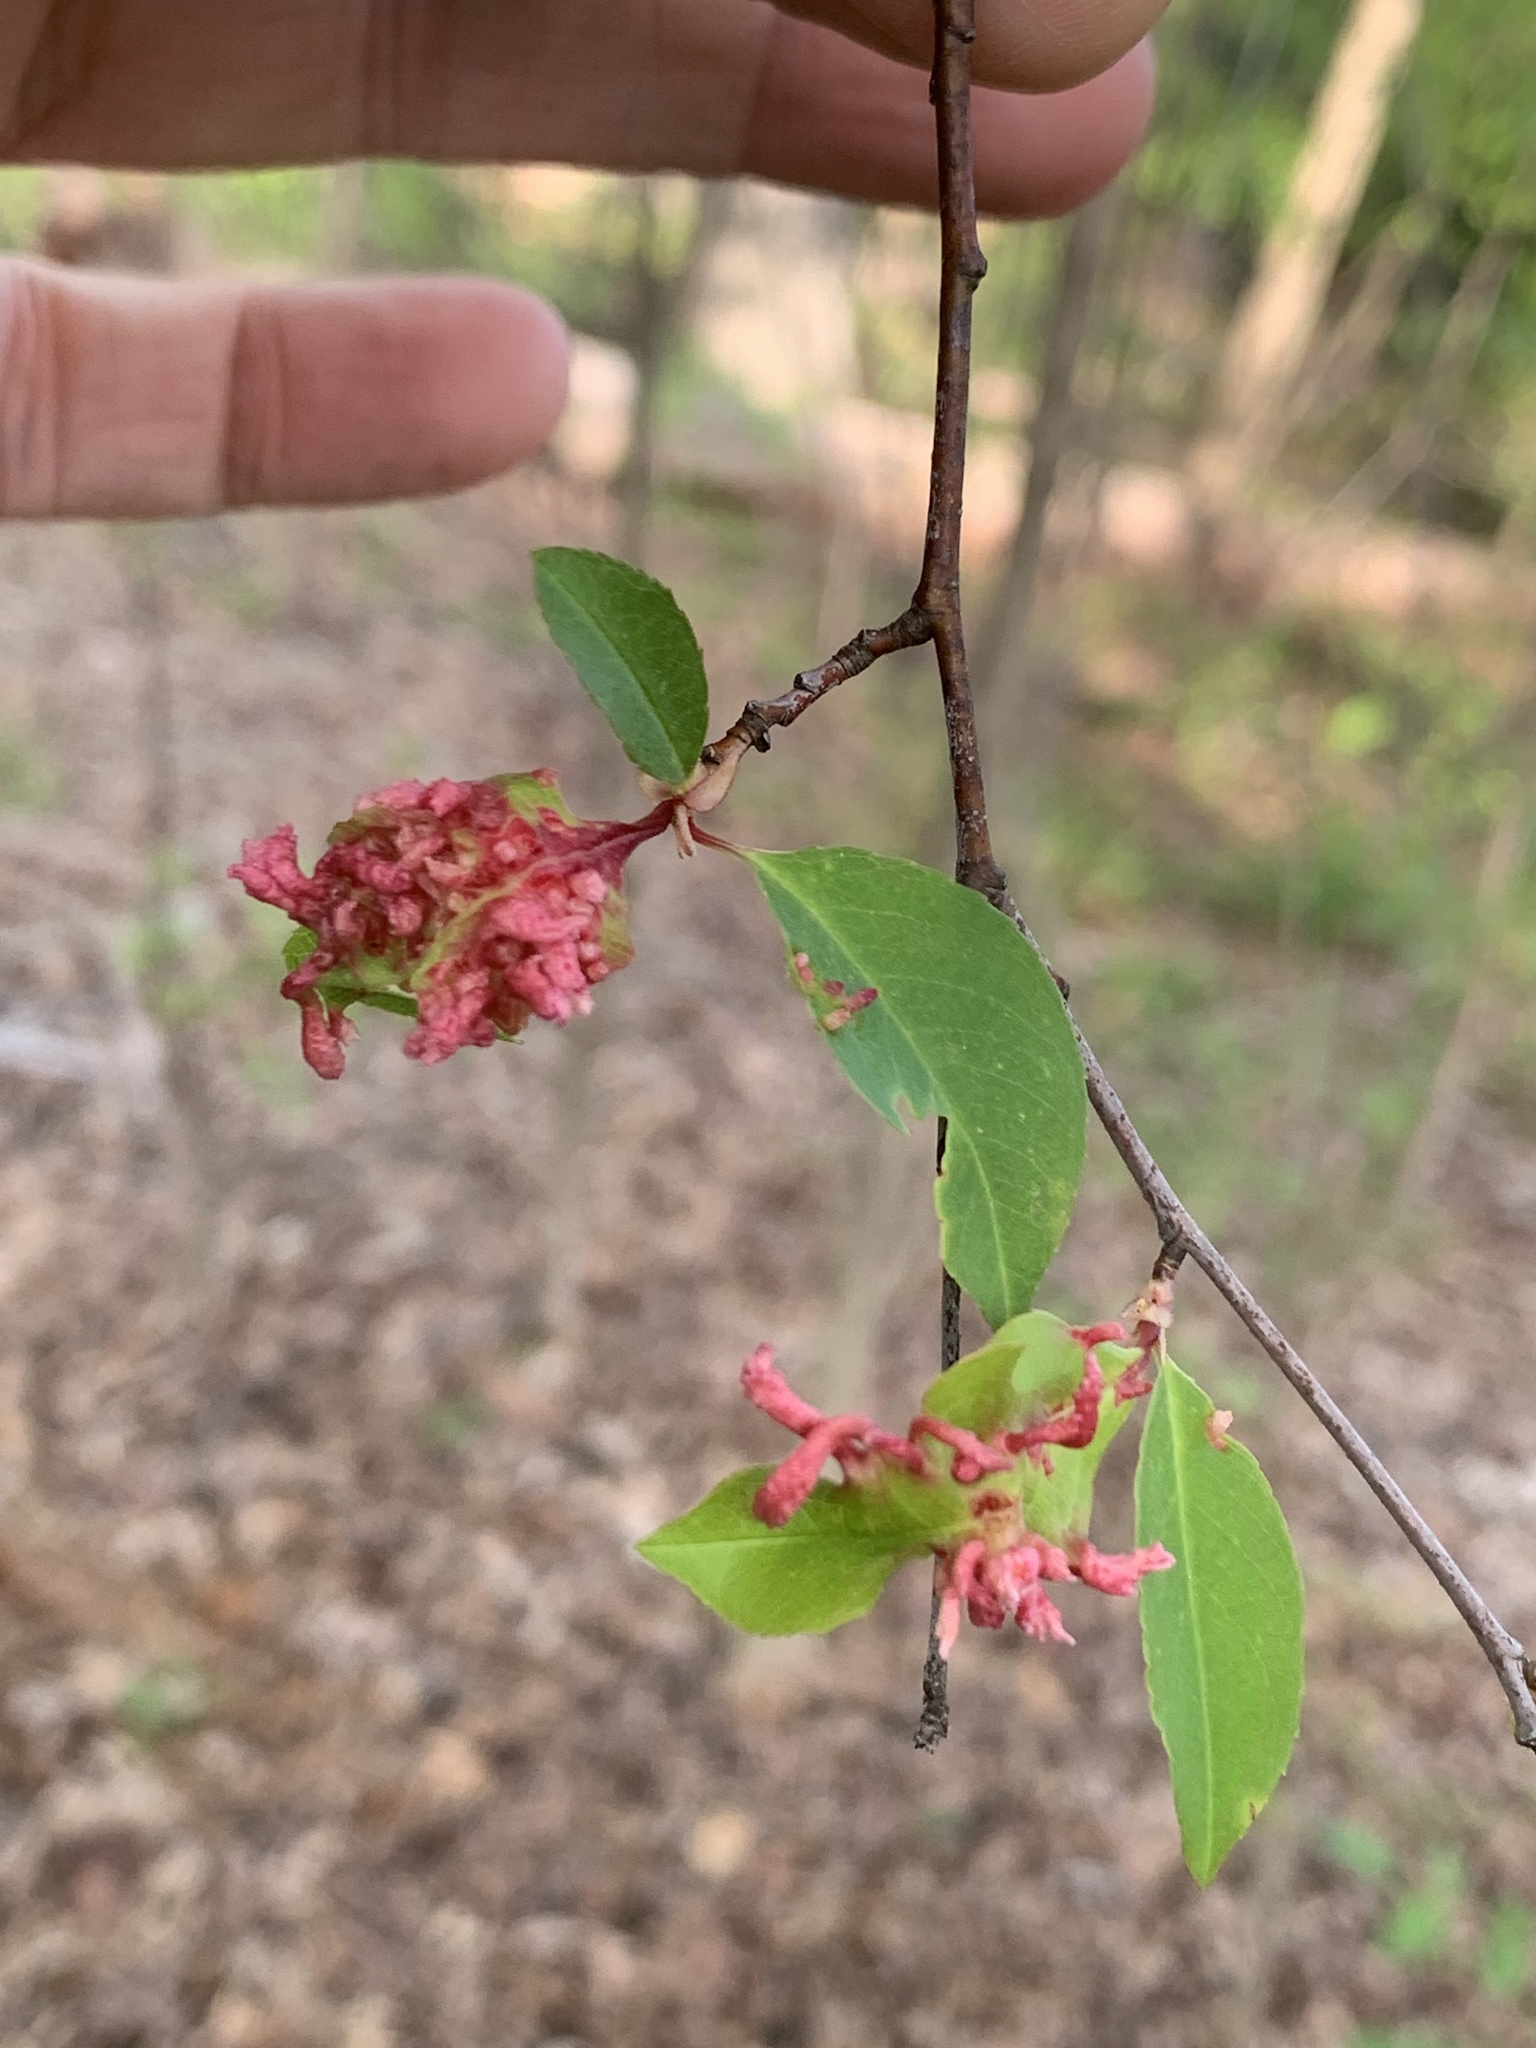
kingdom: Animalia
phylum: Arthropoda
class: Arachnida
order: Trombidiformes
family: Eriophyidae
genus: Eriophyes
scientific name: Eriophyes
